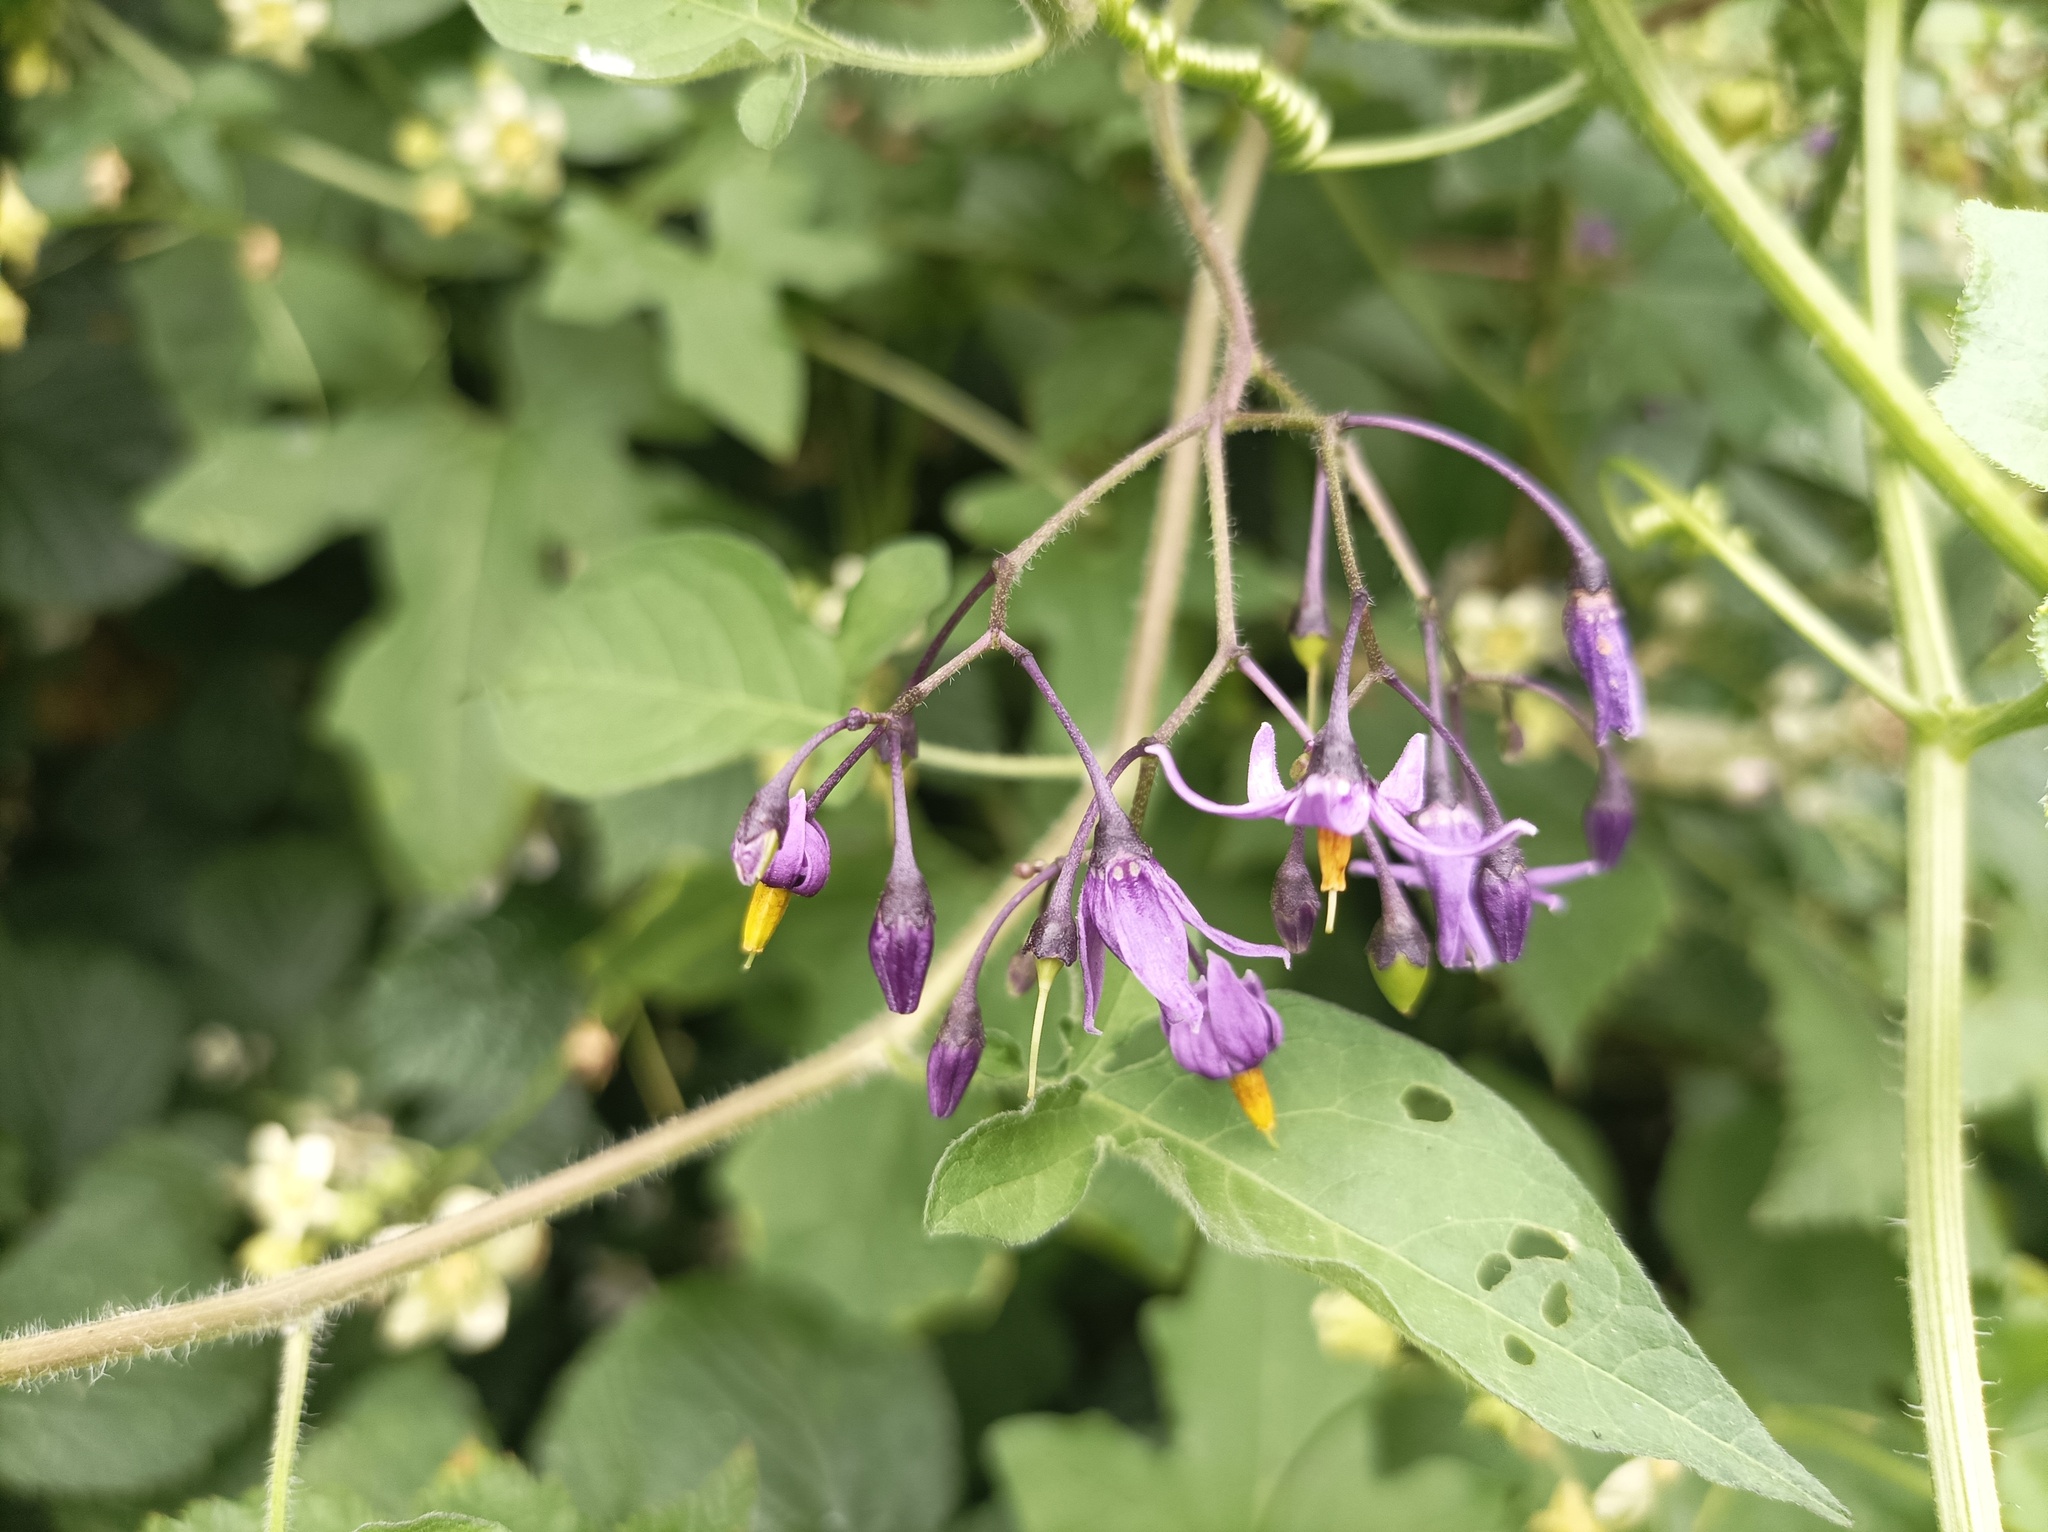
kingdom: Plantae
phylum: Tracheophyta
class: Magnoliopsida
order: Solanales
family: Solanaceae
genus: Solanum
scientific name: Solanum dulcamara
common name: Climbing nightshade
